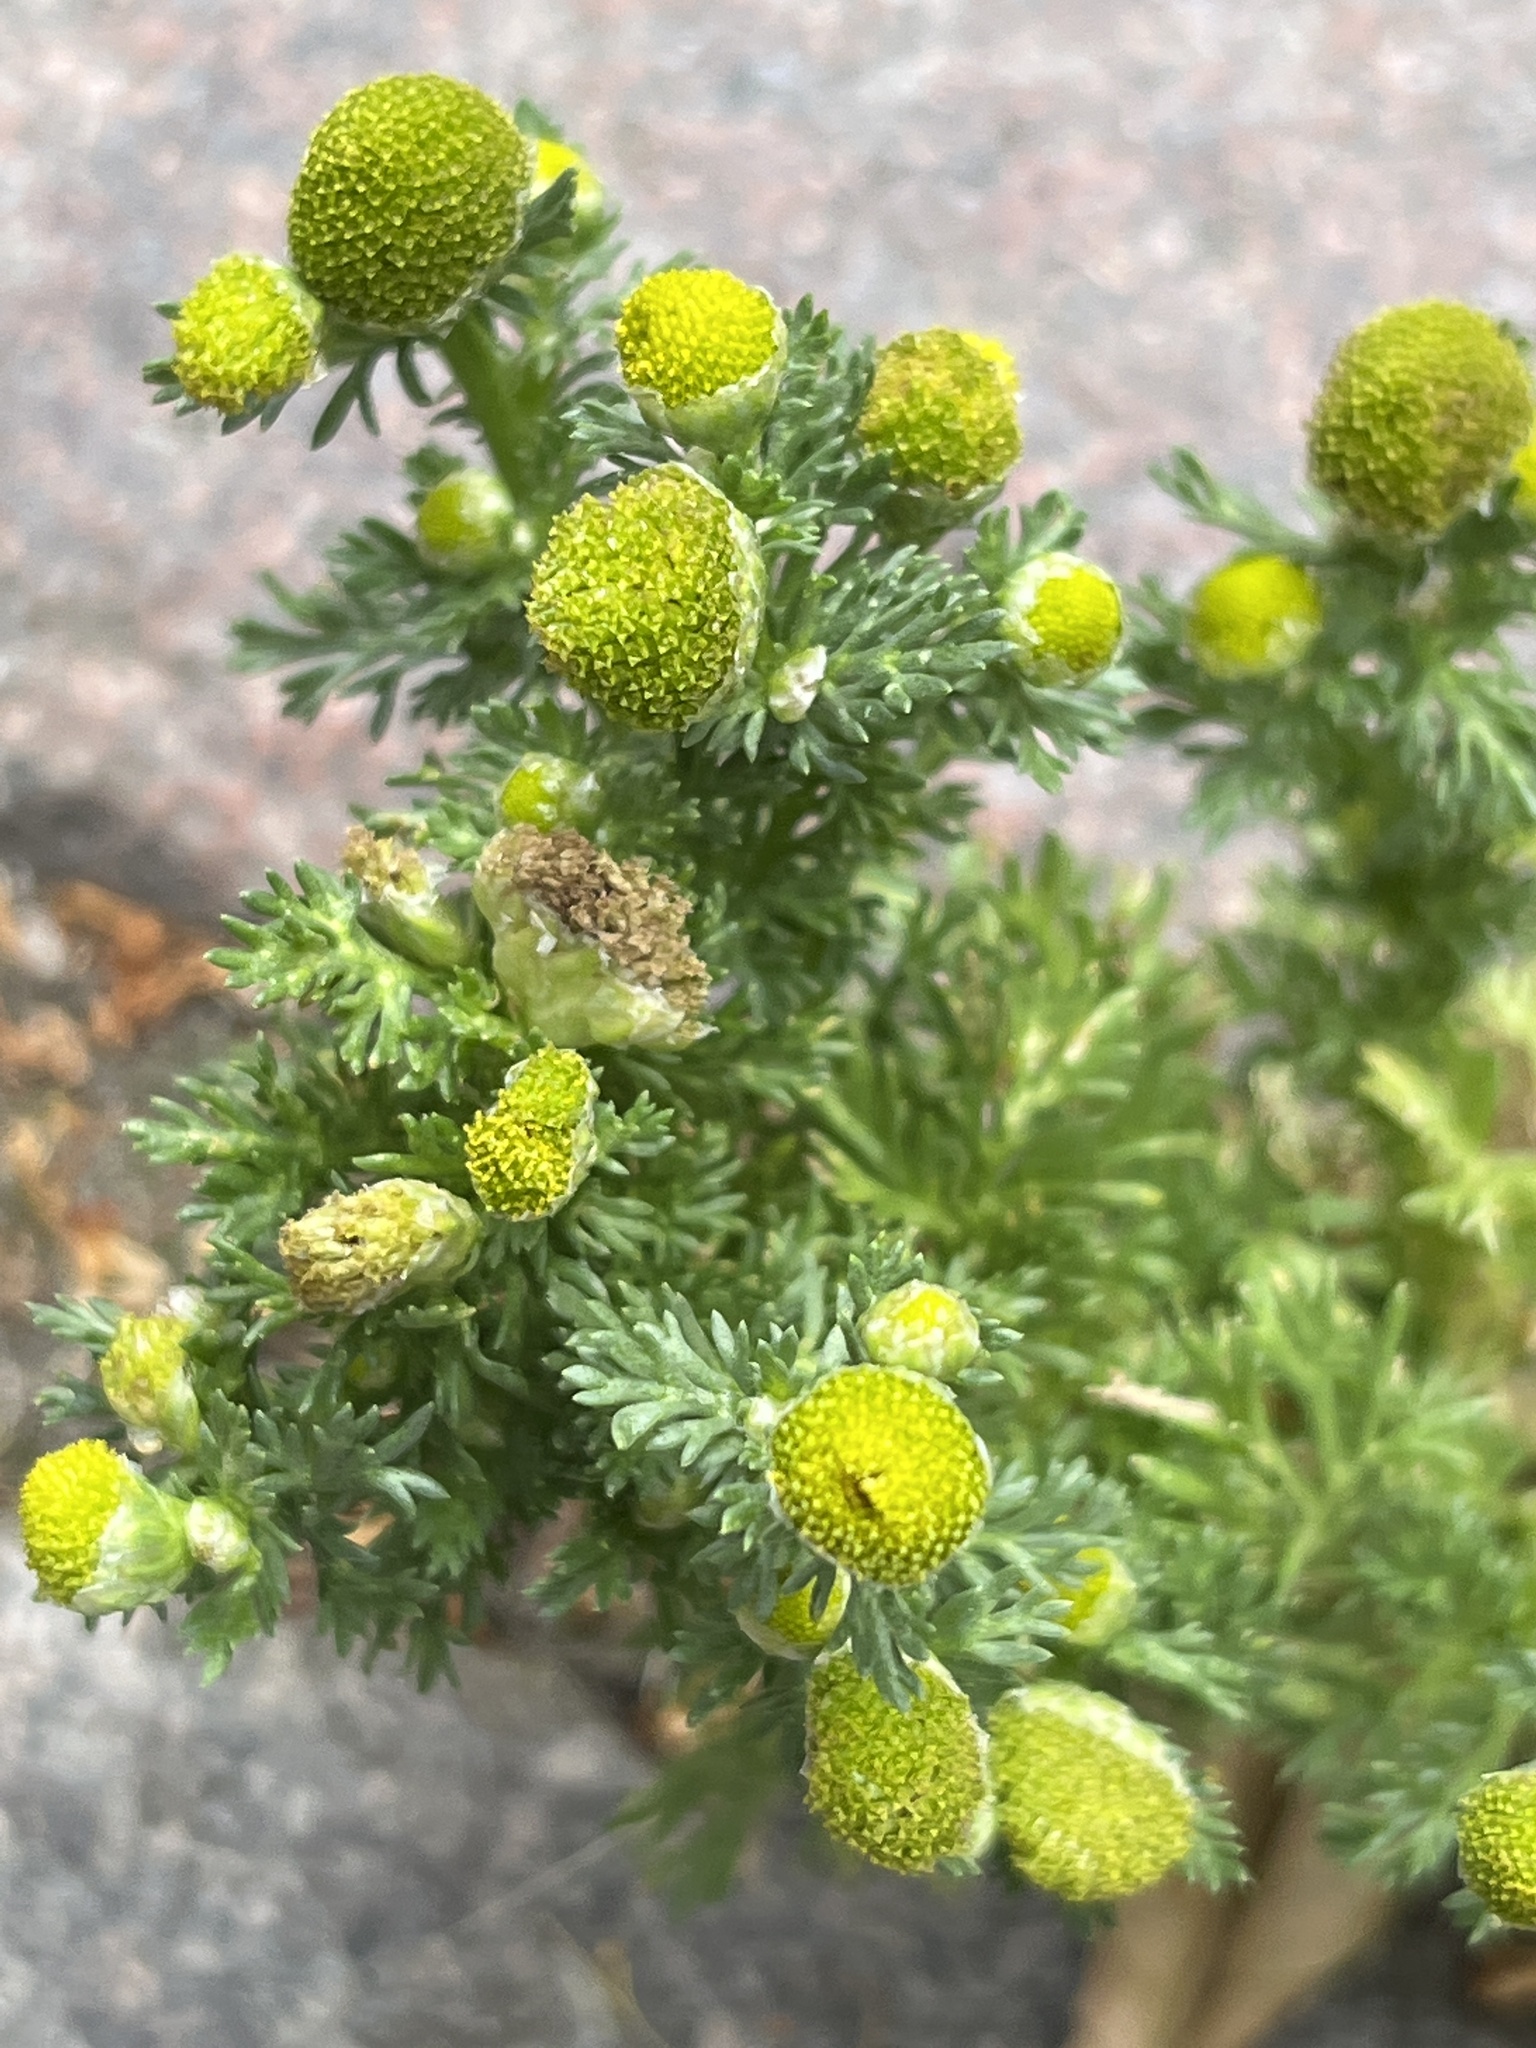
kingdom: Plantae
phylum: Tracheophyta
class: Magnoliopsida
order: Asterales
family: Asteraceae
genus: Matricaria
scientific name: Matricaria discoidea
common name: Disc mayweed
